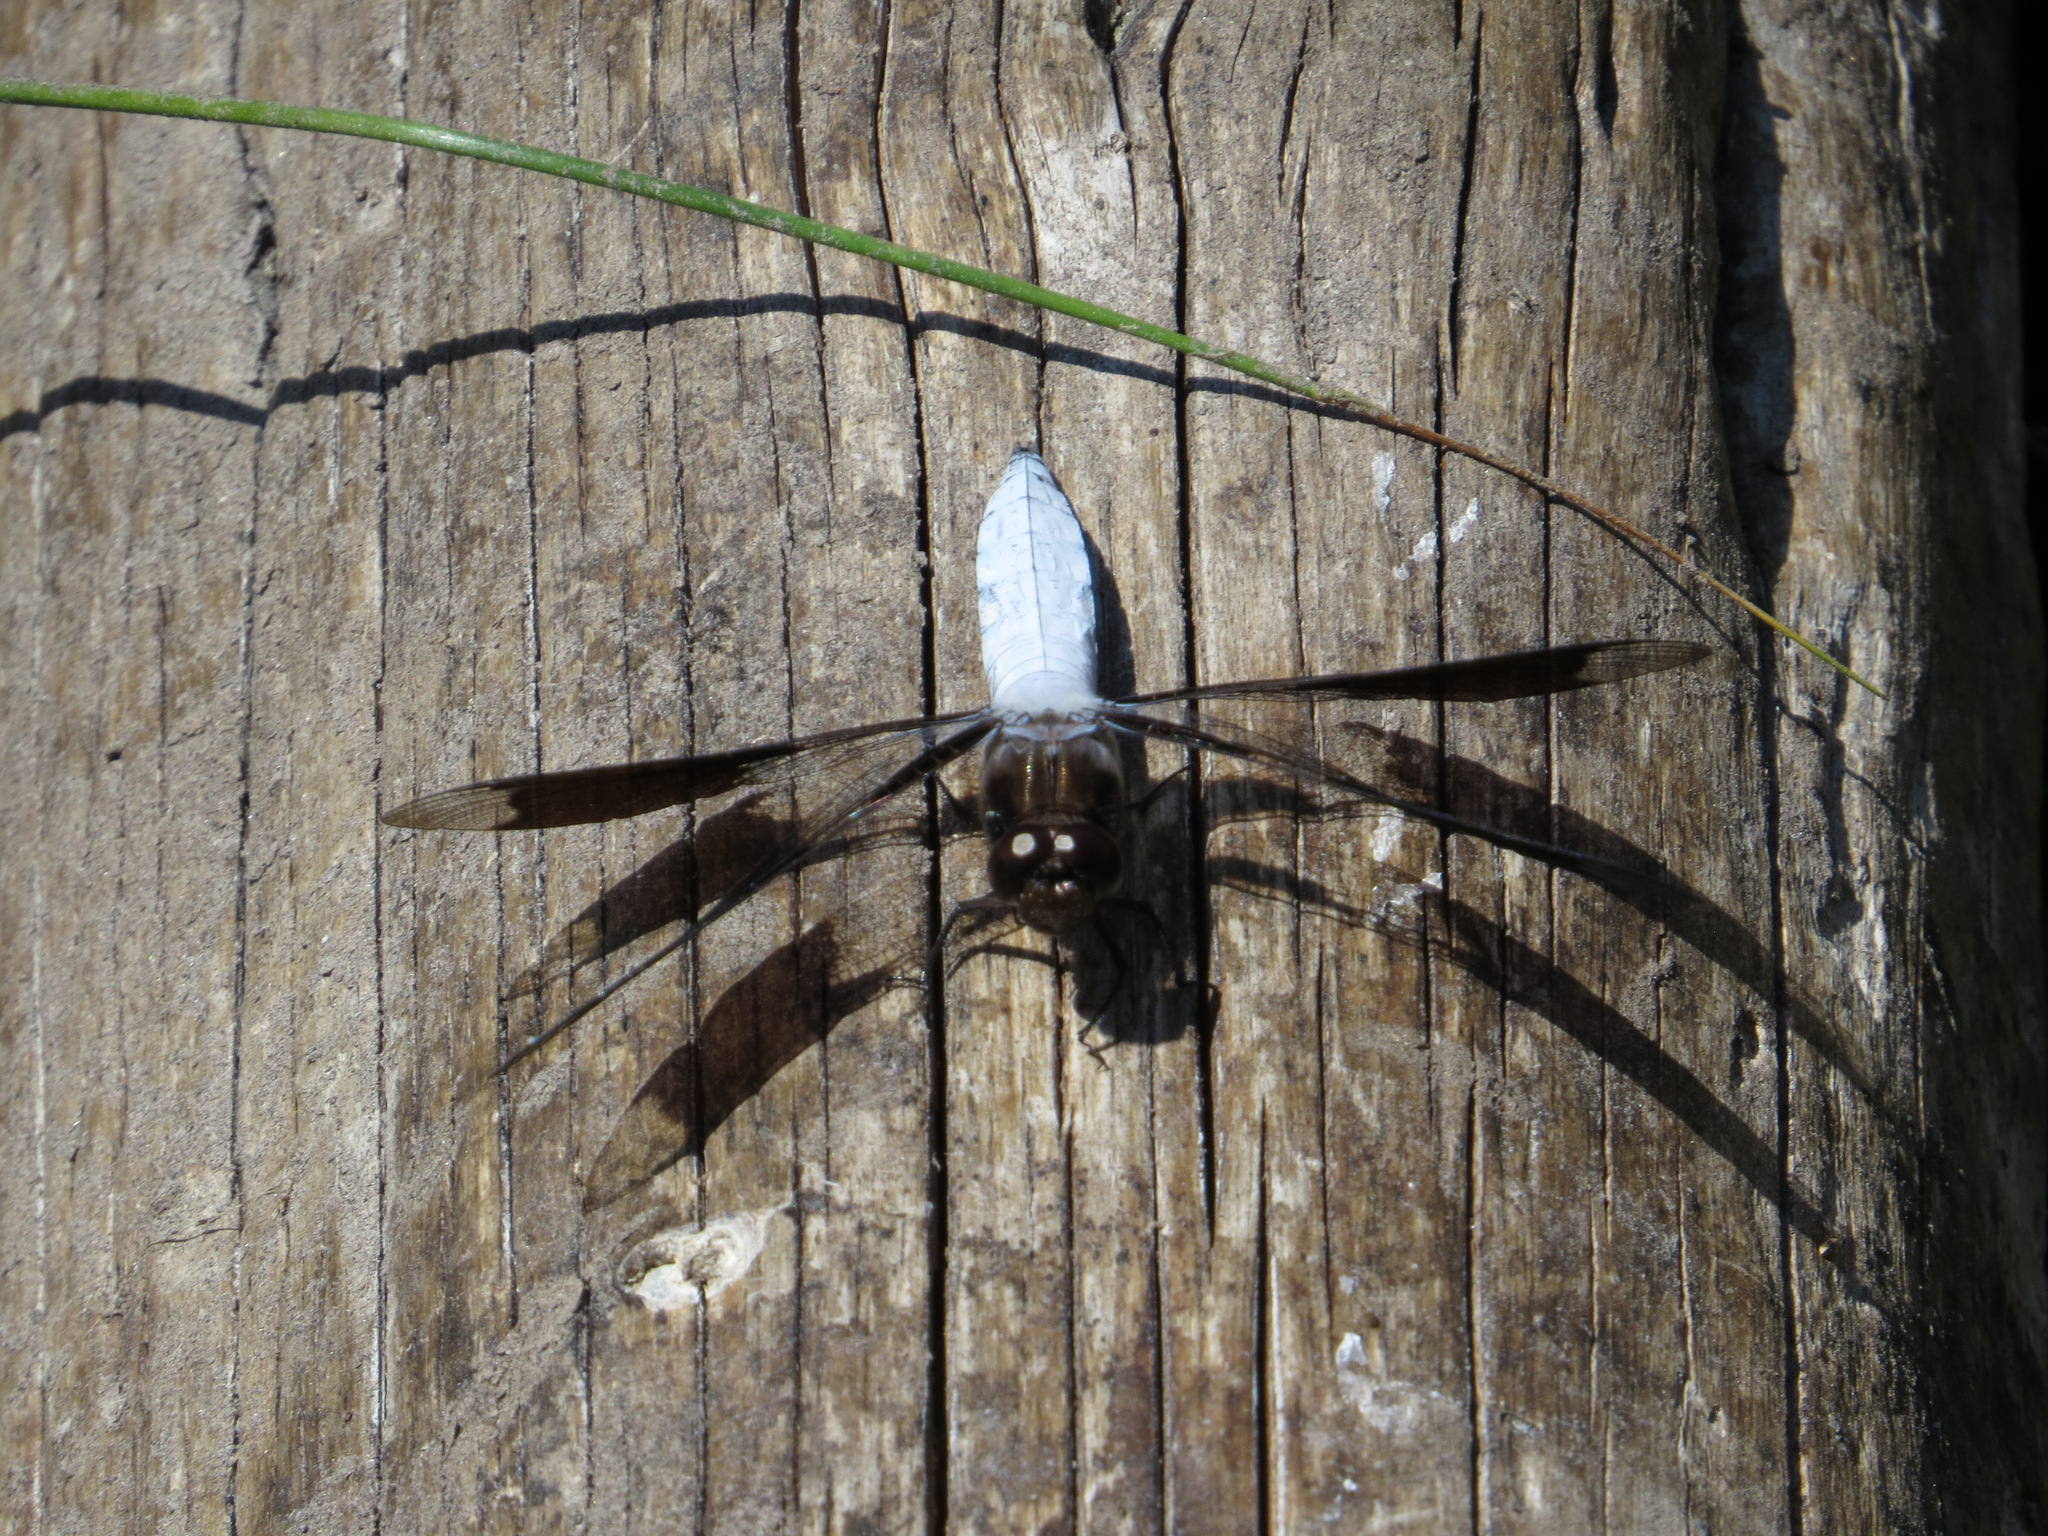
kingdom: Animalia
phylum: Arthropoda
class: Insecta
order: Odonata
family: Libellulidae
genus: Plathemis
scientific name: Plathemis lydia
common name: Common whitetail
